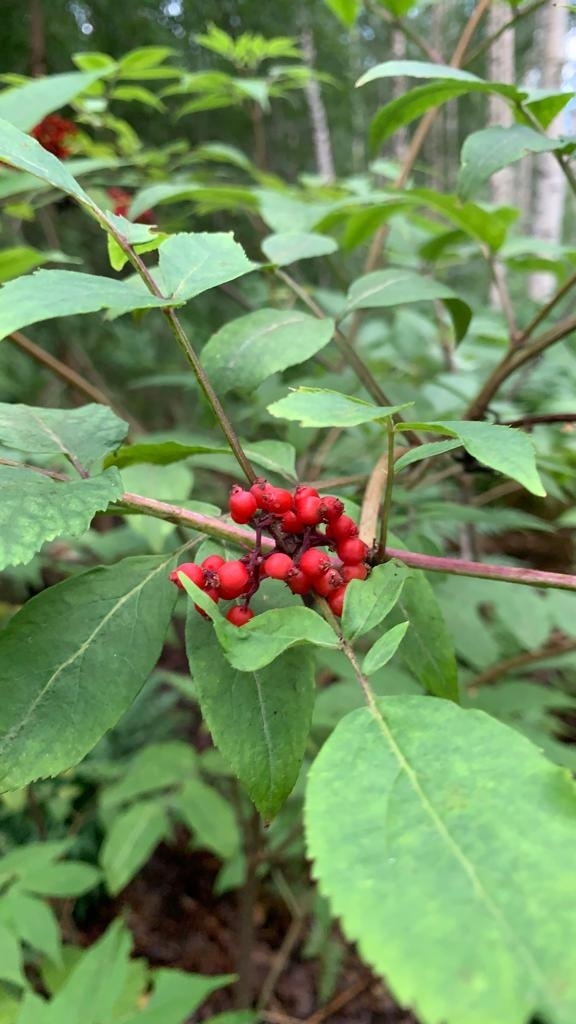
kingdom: Plantae
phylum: Tracheophyta
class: Magnoliopsida
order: Dipsacales
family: Viburnaceae
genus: Sambucus
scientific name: Sambucus racemosa
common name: Red-berried elder
